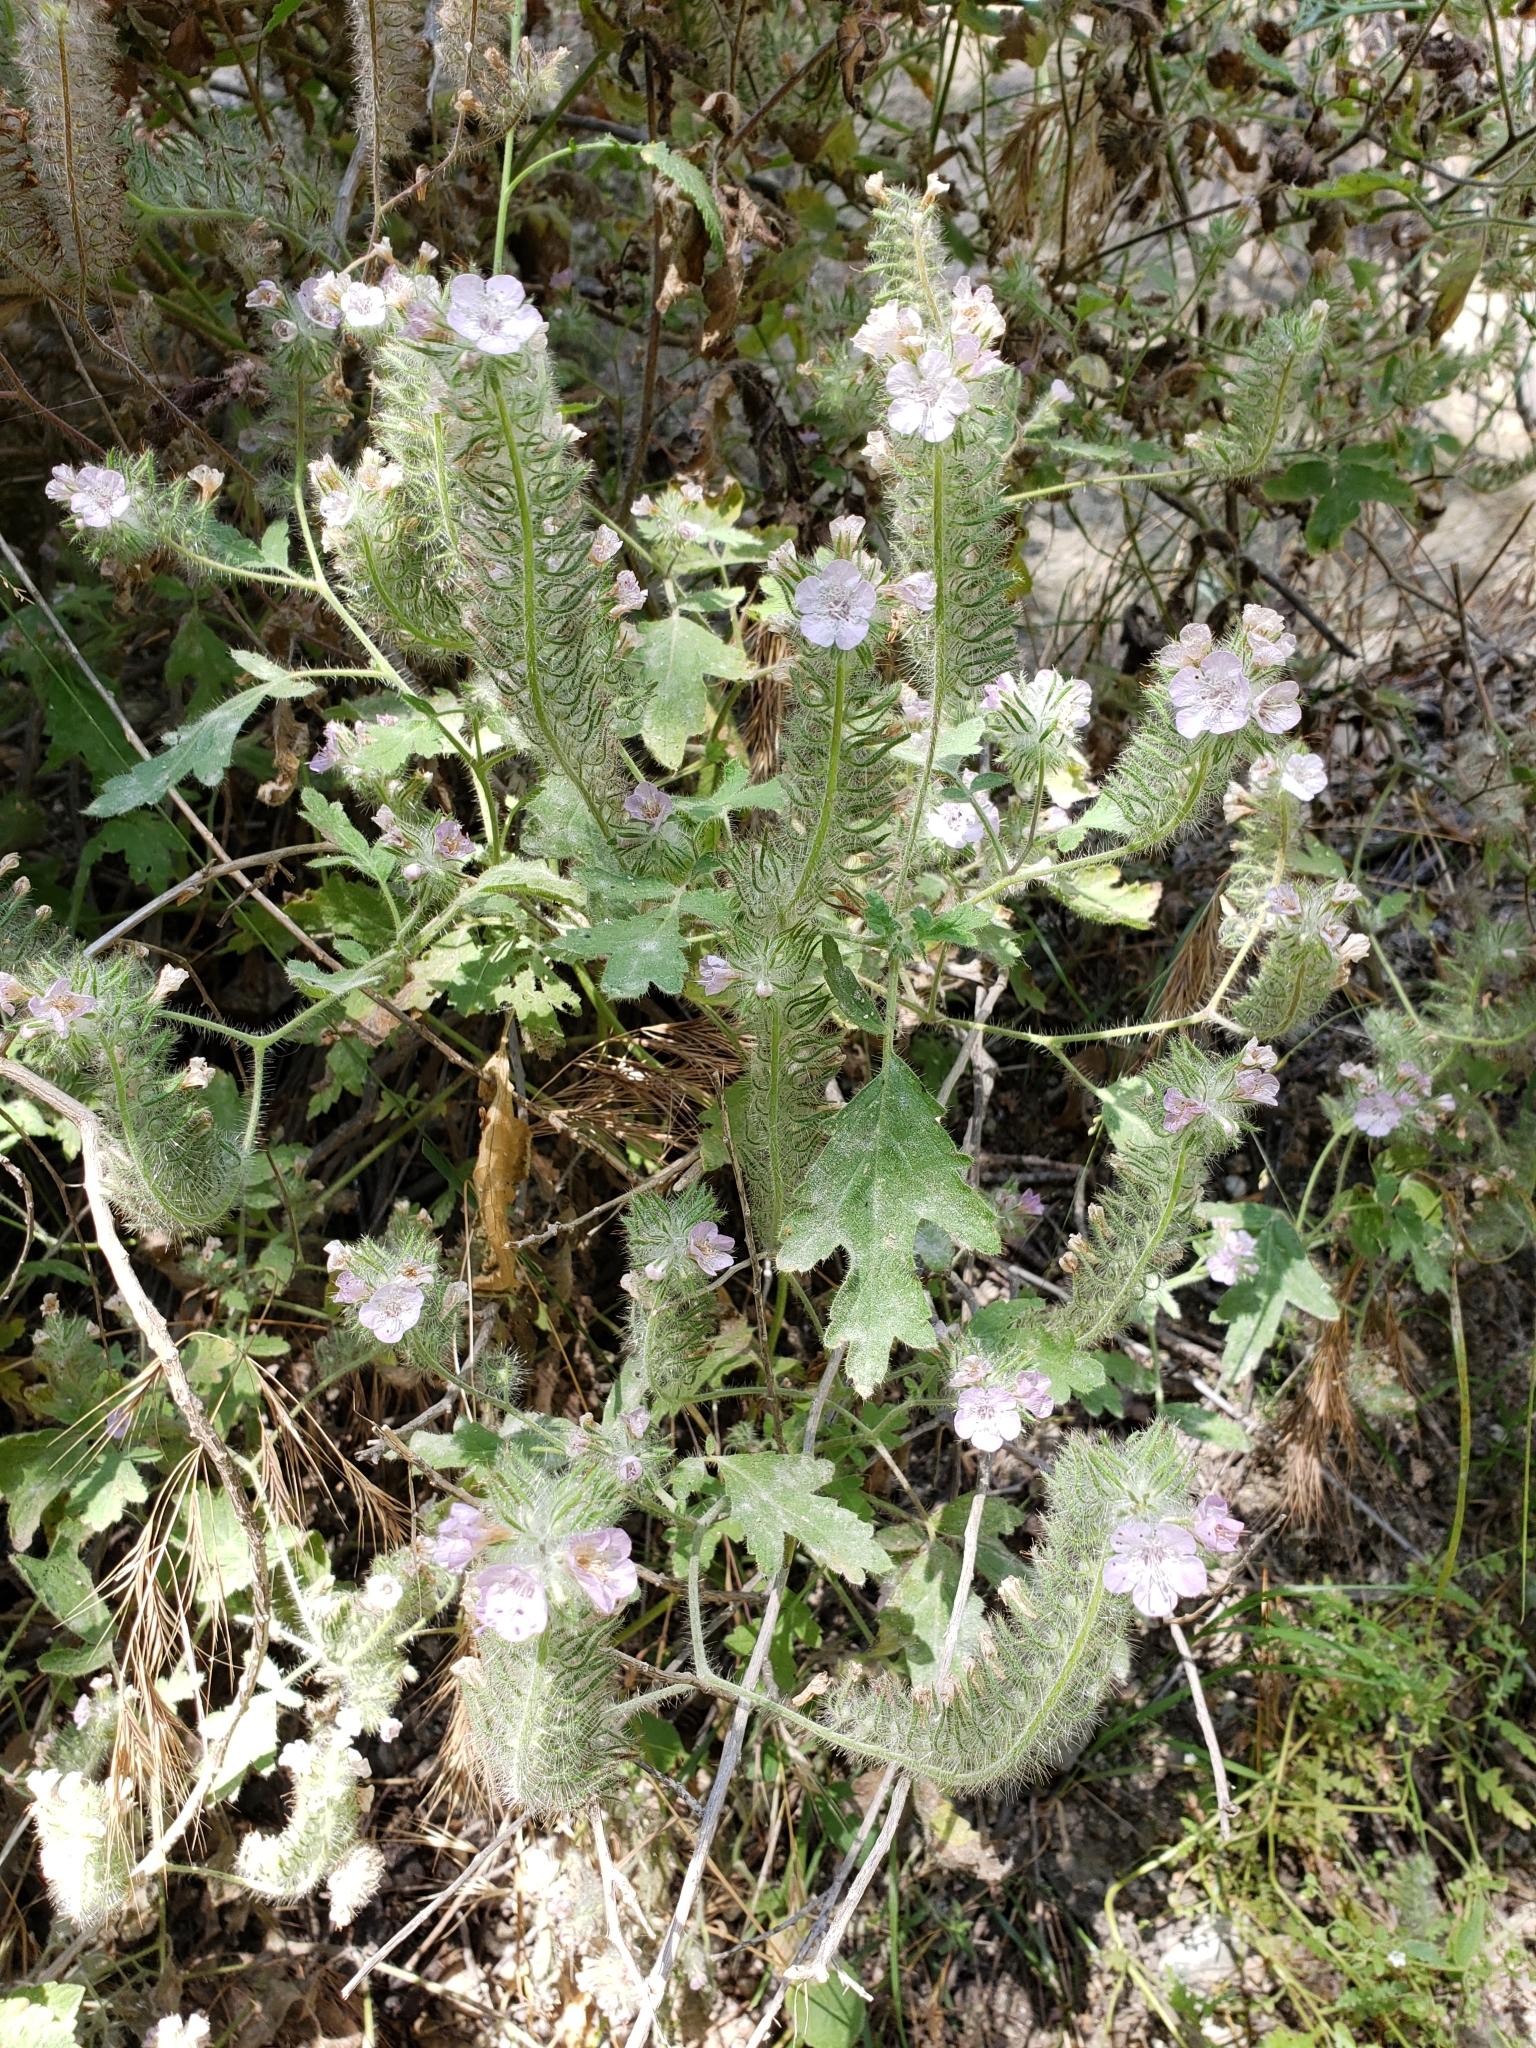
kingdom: Plantae
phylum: Tracheophyta
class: Magnoliopsida
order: Boraginales
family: Hydrophyllaceae
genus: Phacelia
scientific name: Phacelia cicutaria
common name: Caterpillar phacelia
